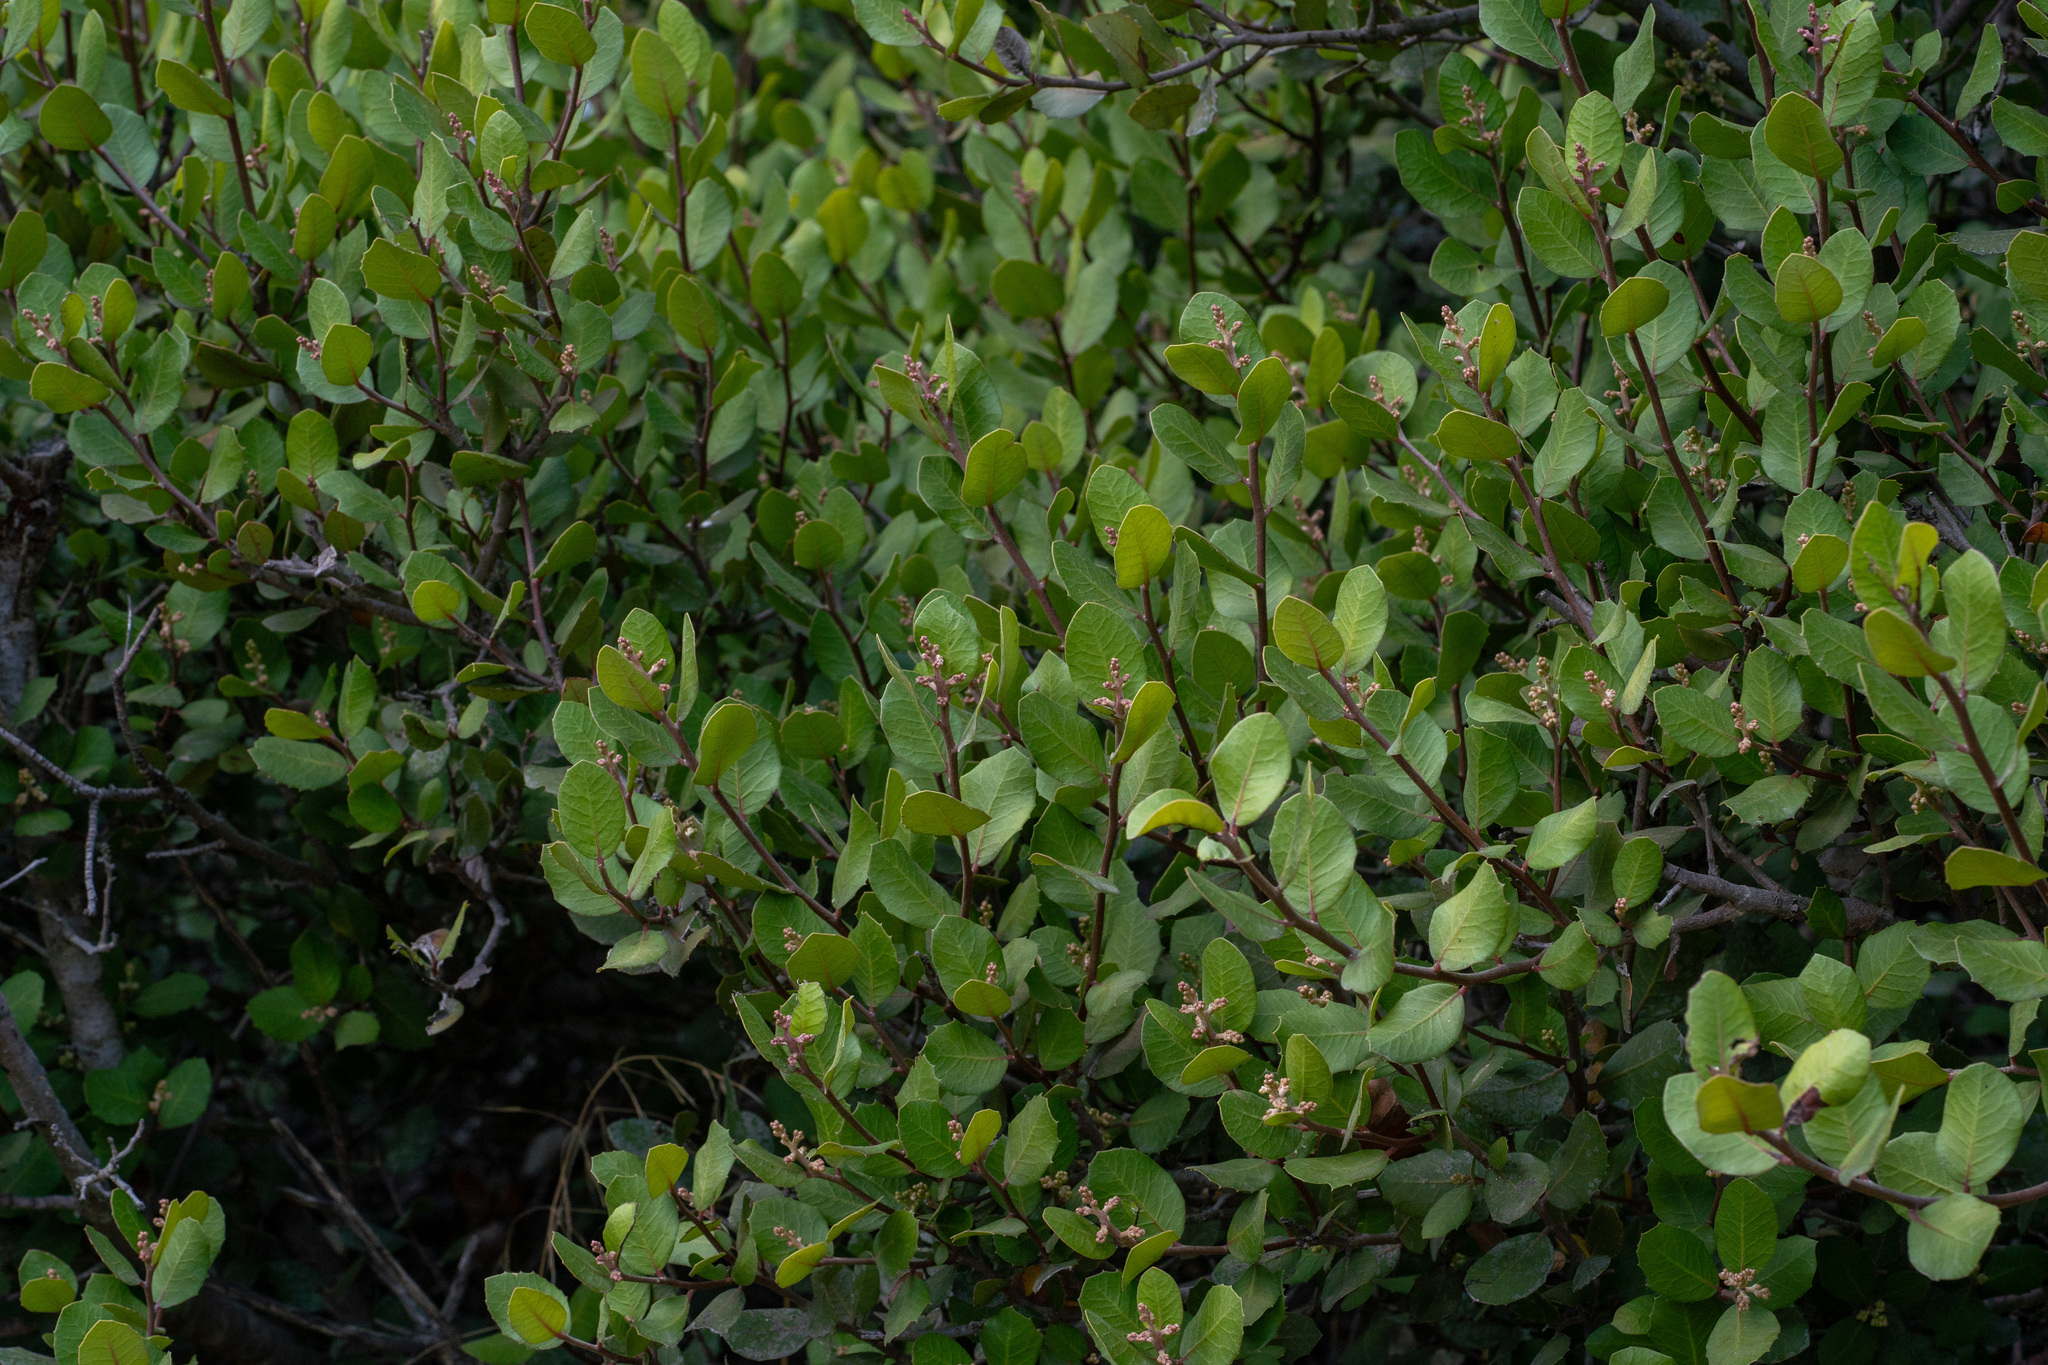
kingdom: Plantae
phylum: Tracheophyta
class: Magnoliopsida
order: Sapindales
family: Anacardiaceae
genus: Rhus
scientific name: Rhus integrifolia
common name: Lemonade sumac
